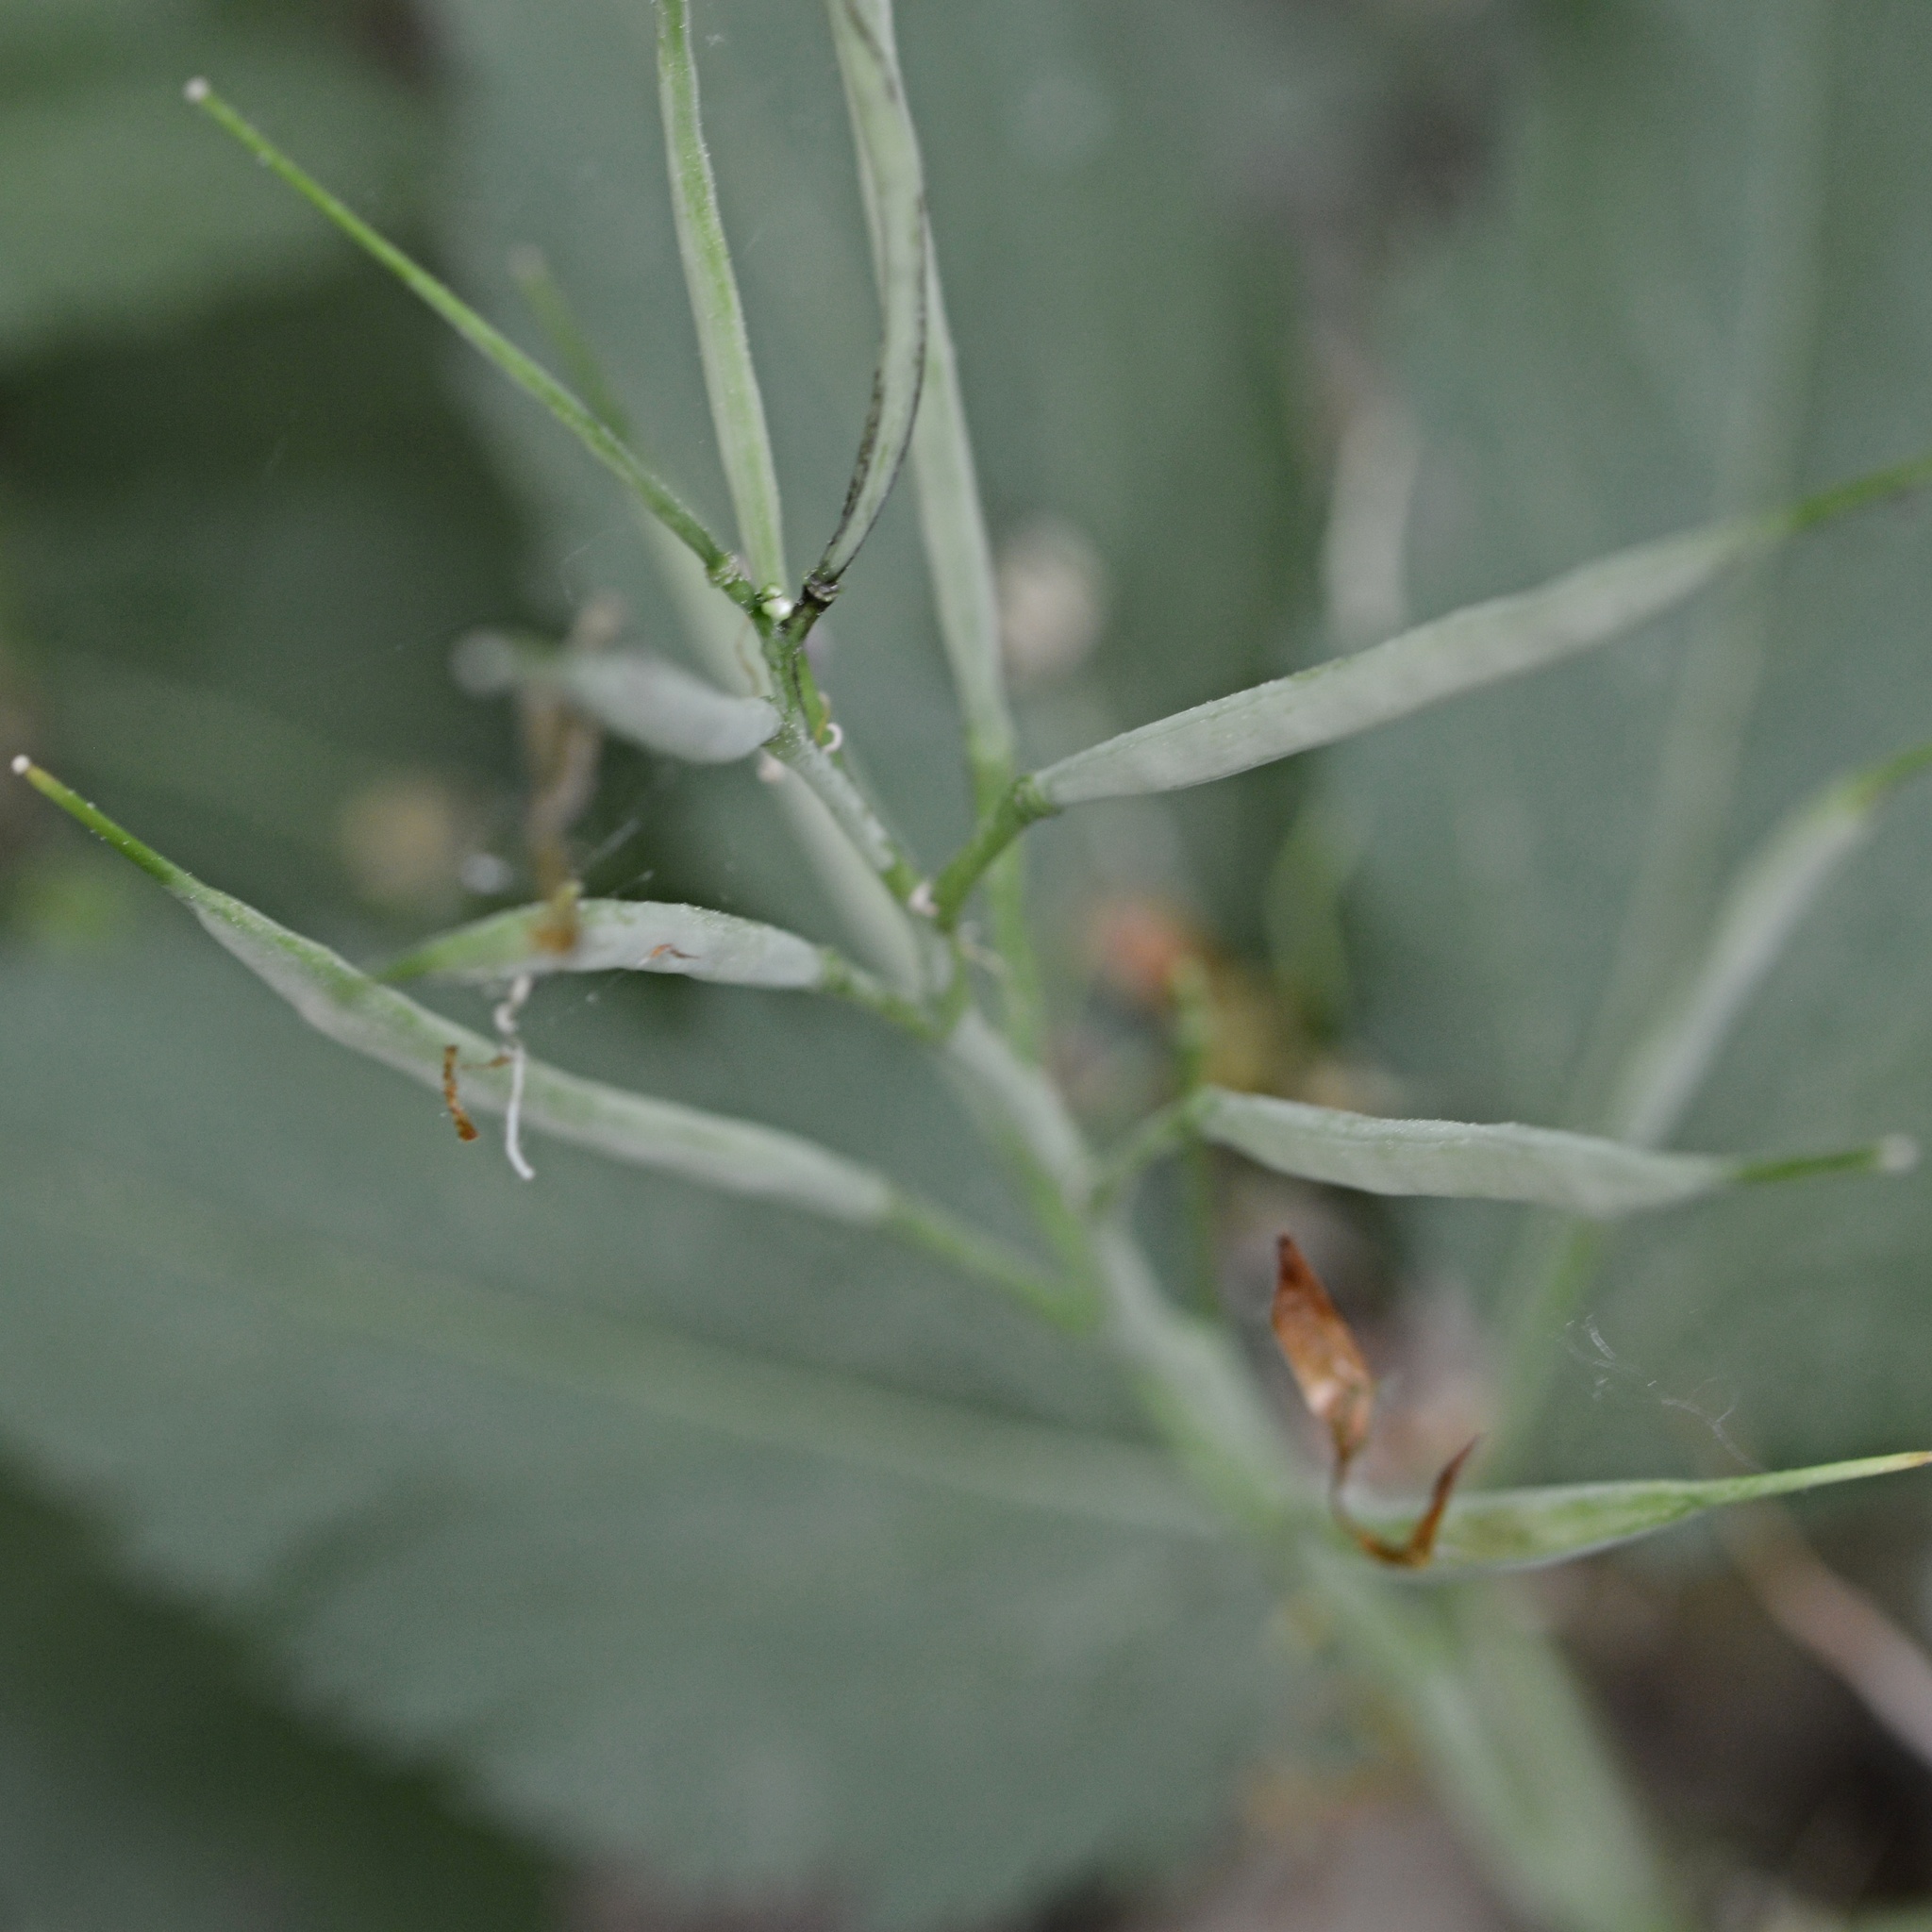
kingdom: Plantae
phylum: Tracheophyta
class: Magnoliopsida
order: Brassicales
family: Brassicaceae
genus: Cardamine
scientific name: Cardamine enneaphyllos
